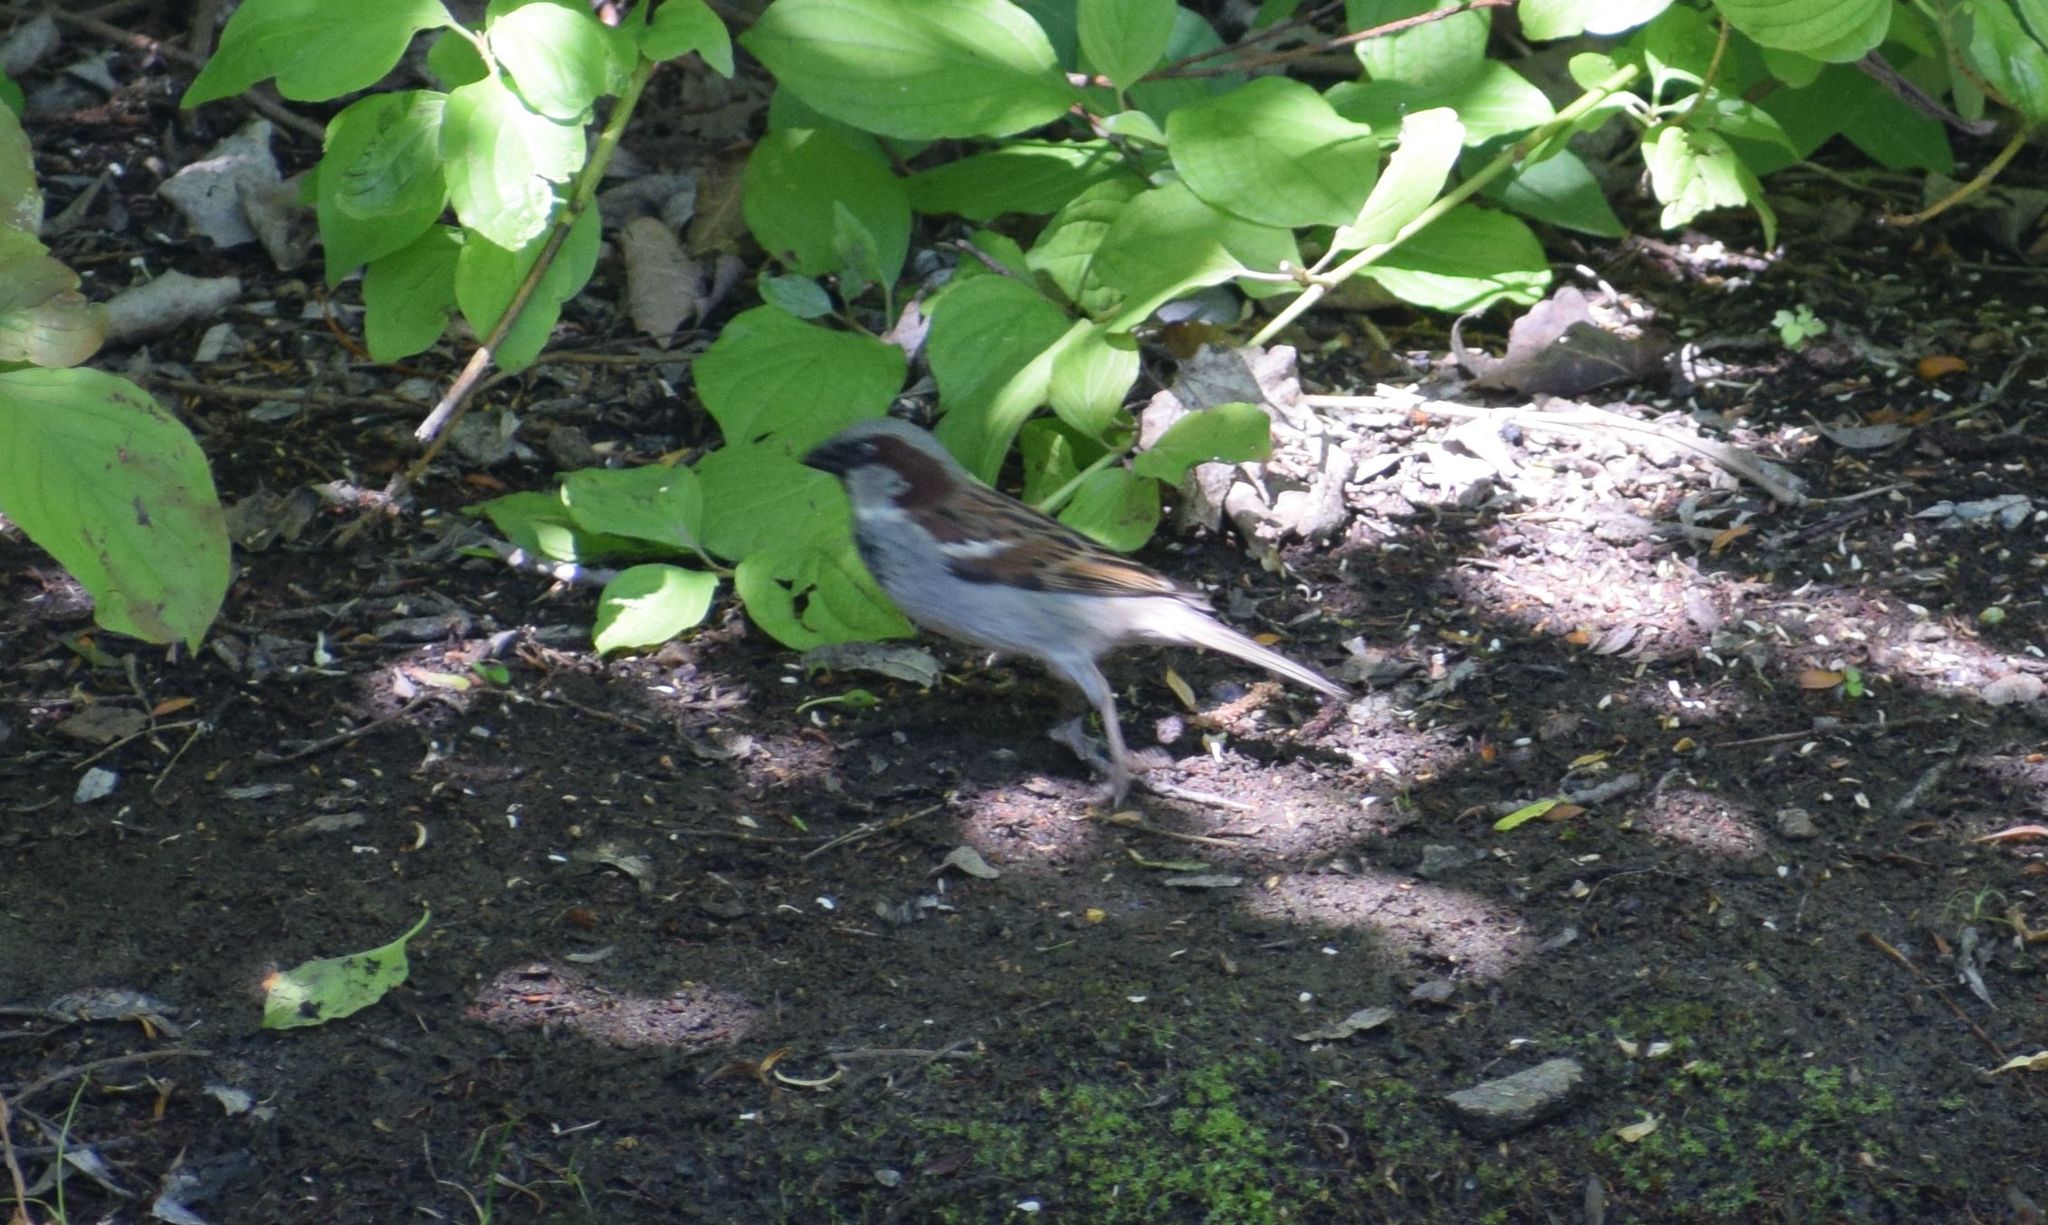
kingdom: Animalia
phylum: Chordata
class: Aves
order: Passeriformes
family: Passeridae
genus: Passer
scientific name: Passer domesticus
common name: House sparrow
